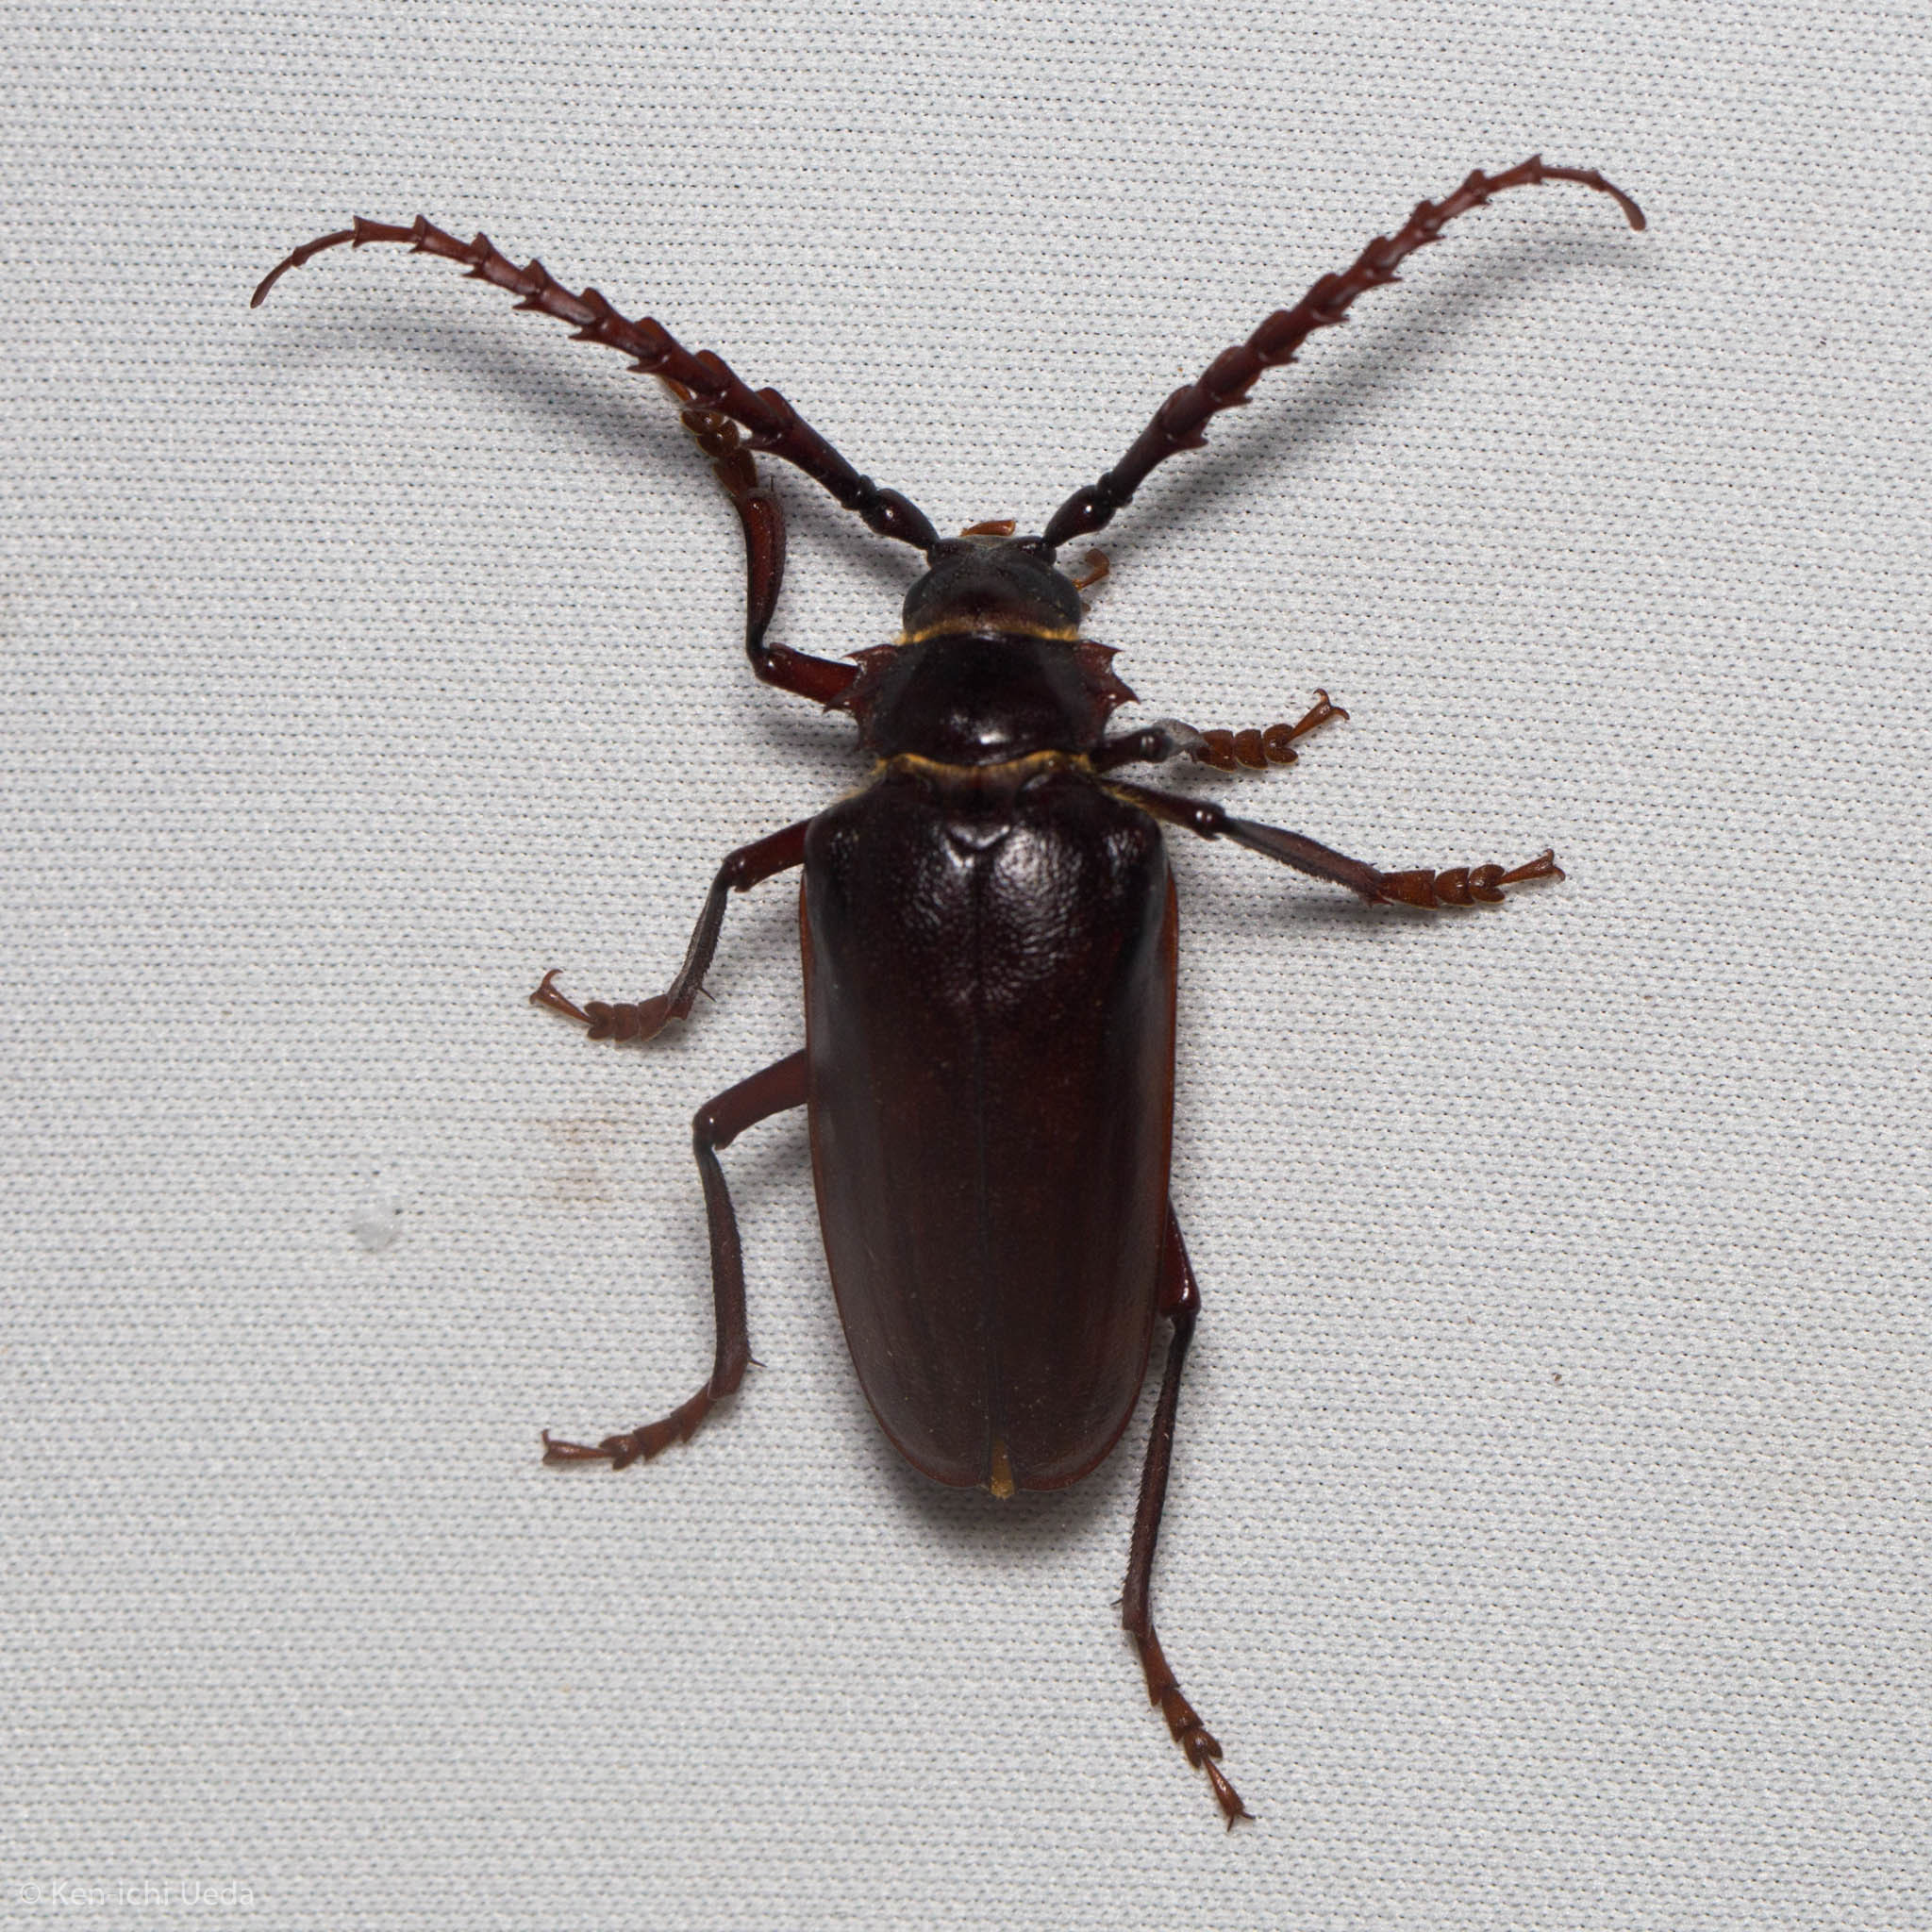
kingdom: Animalia
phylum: Arthropoda
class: Insecta
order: Coleoptera
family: Cerambycidae
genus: Prionus
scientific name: Prionus californicus
